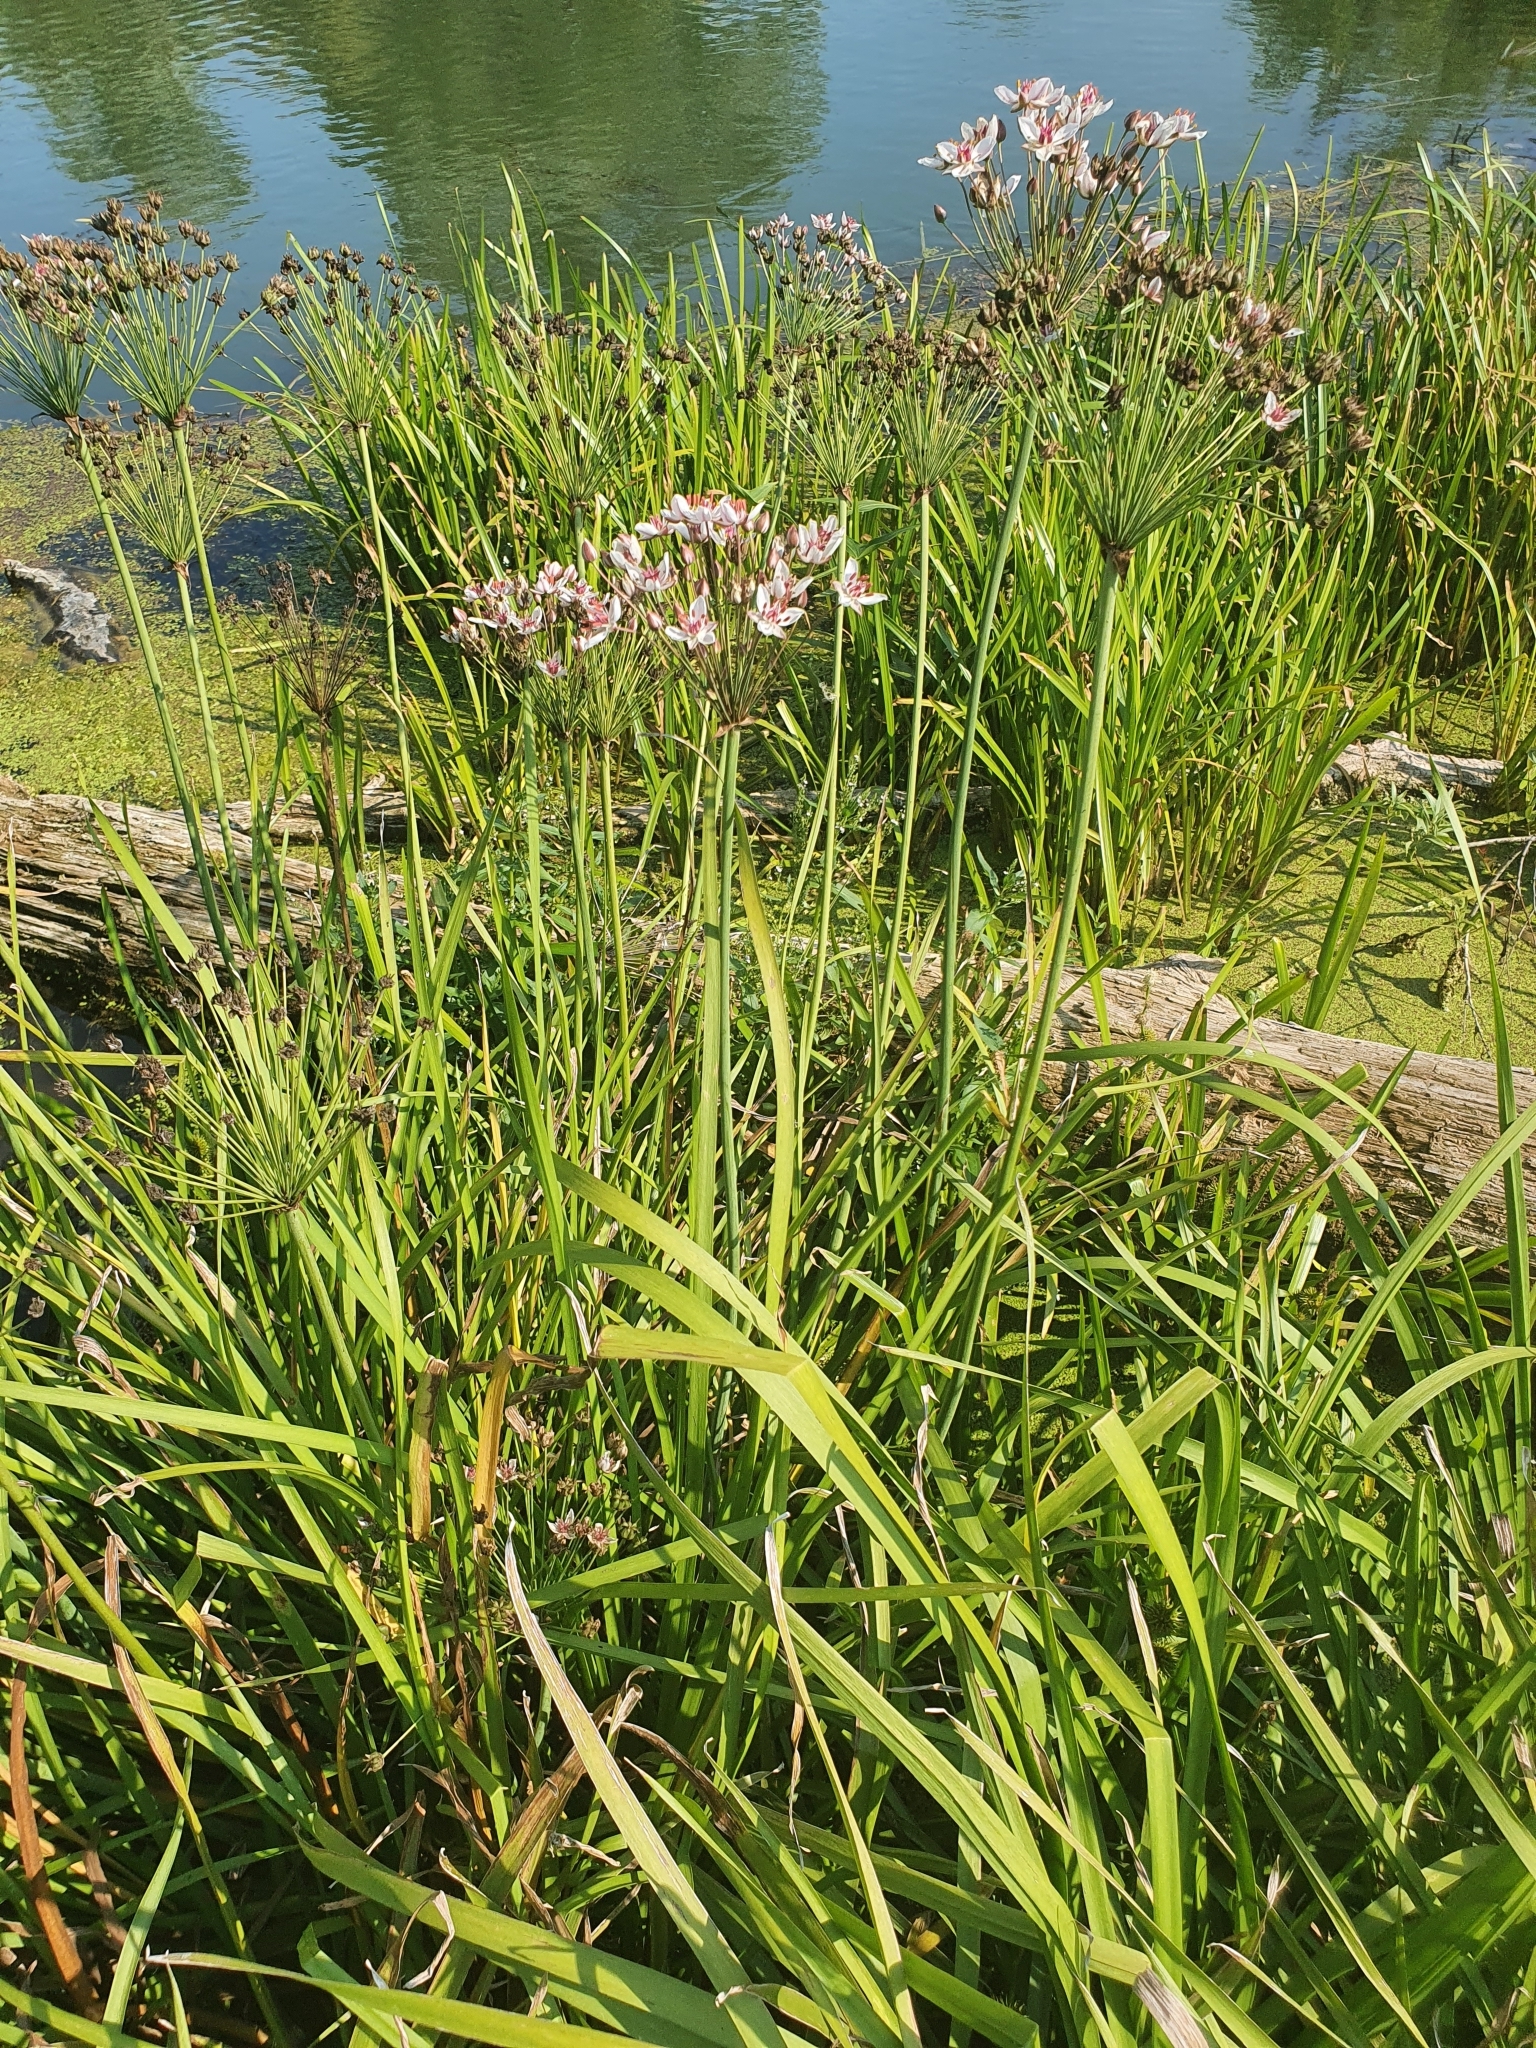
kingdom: Plantae
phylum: Tracheophyta
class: Liliopsida
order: Alismatales
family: Butomaceae
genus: Butomus
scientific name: Butomus umbellatus
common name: Flowering-rush
